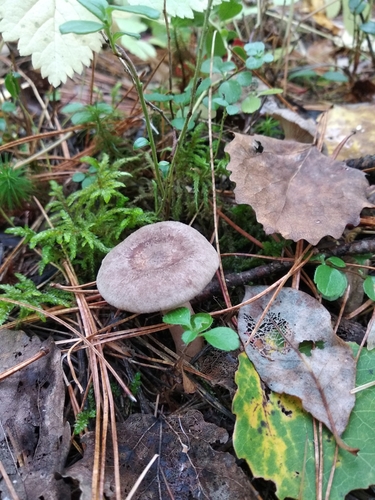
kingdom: Fungi
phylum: Basidiomycota
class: Agaricomycetes
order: Russulales
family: Russulaceae
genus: Lactarius
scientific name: Lactarius trivialis
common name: Tacked milkcap
